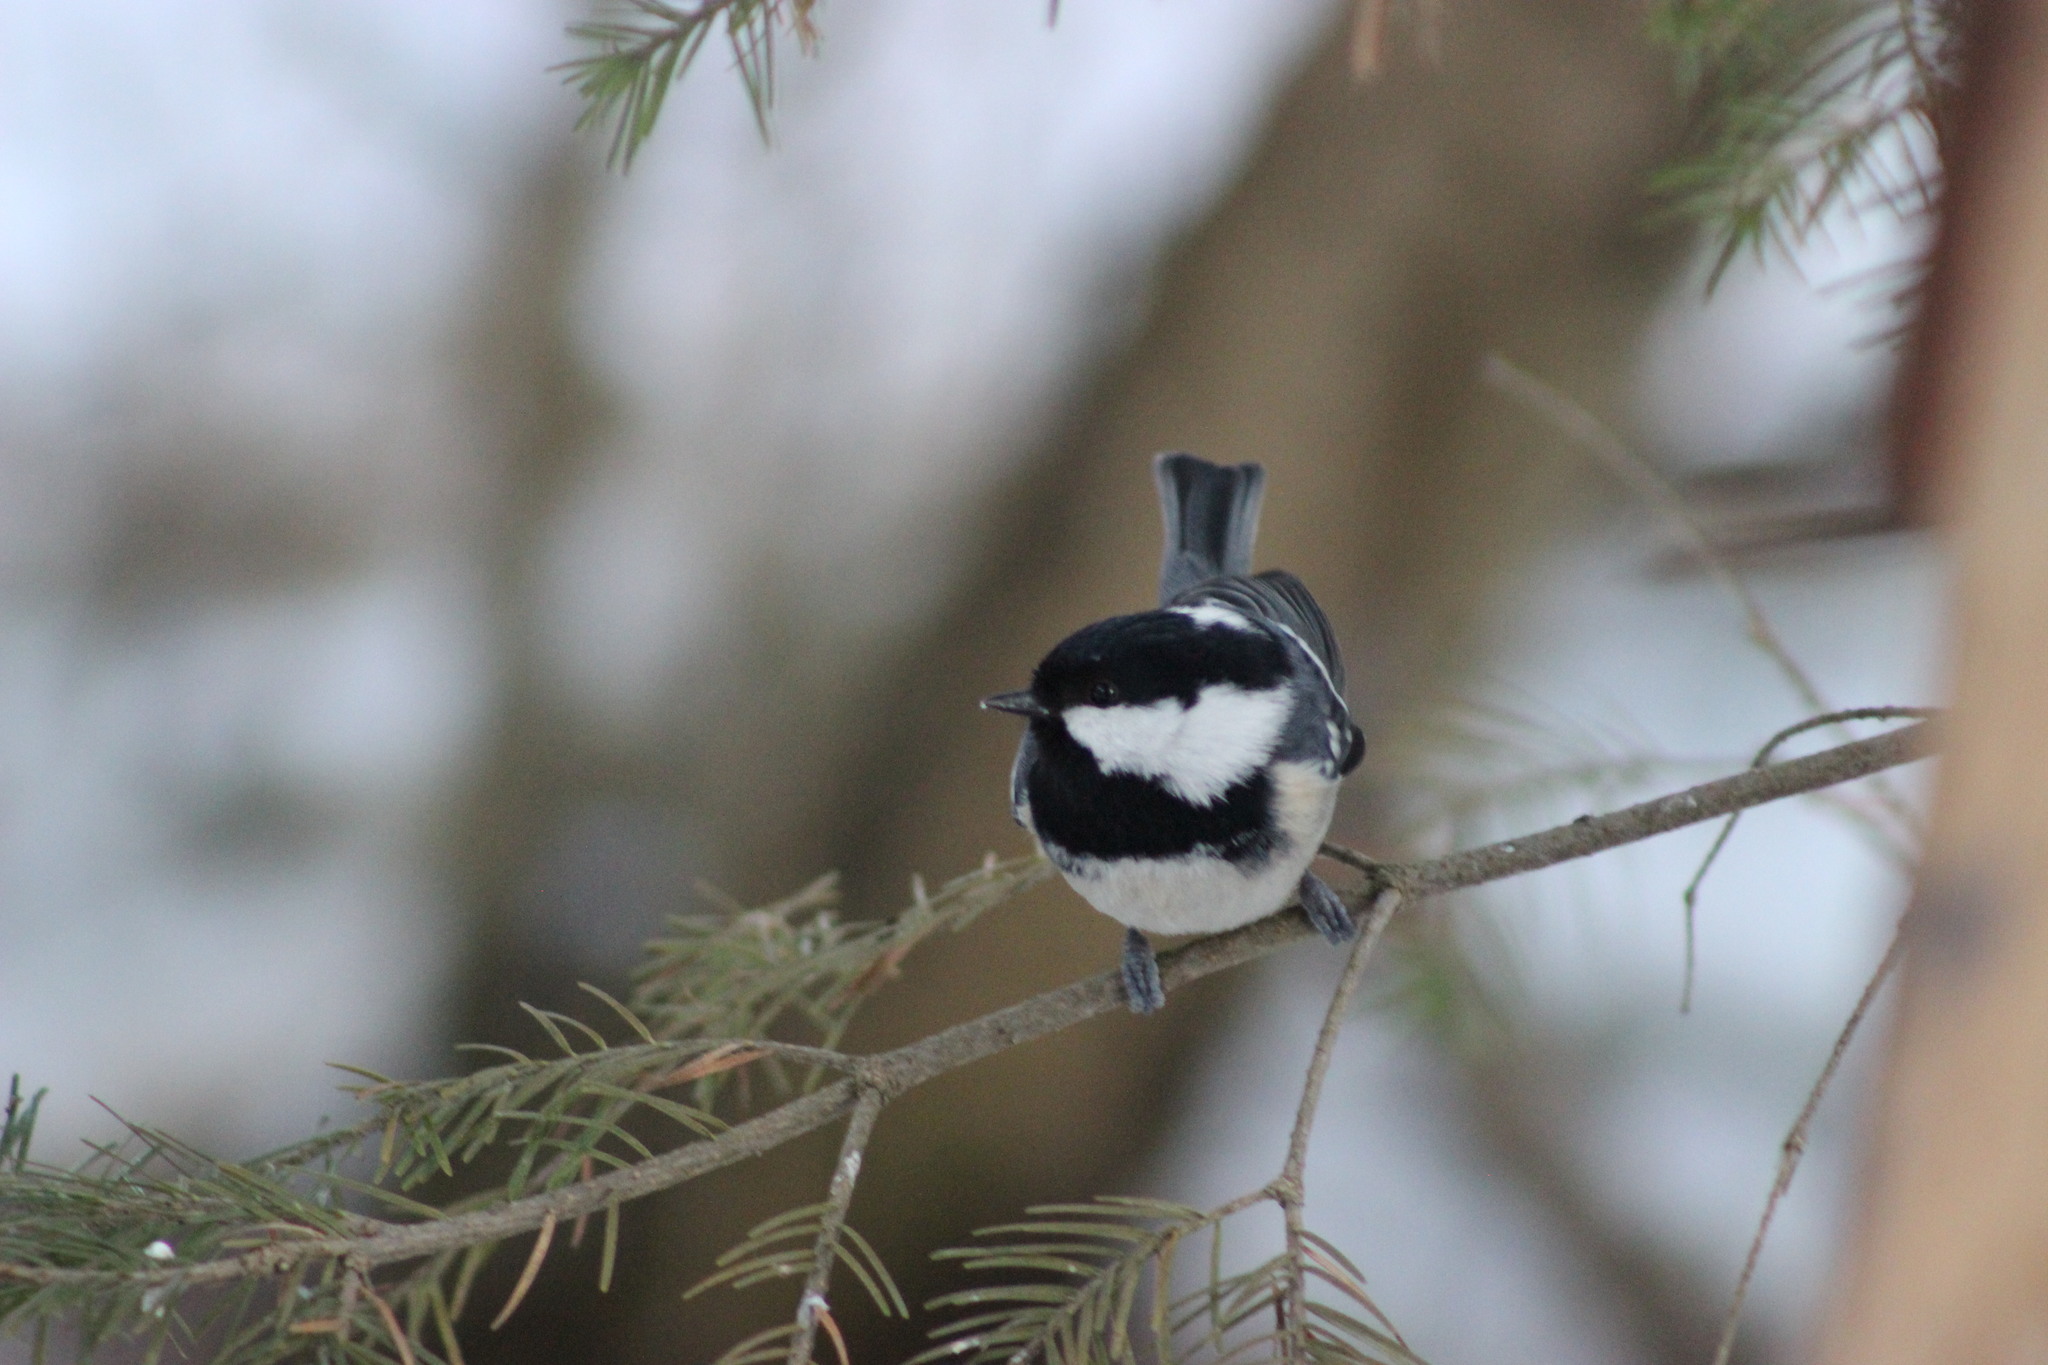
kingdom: Animalia
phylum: Chordata
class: Aves
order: Passeriformes
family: Paridae
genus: Periparus
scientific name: Periparus ater
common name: Coal tit
